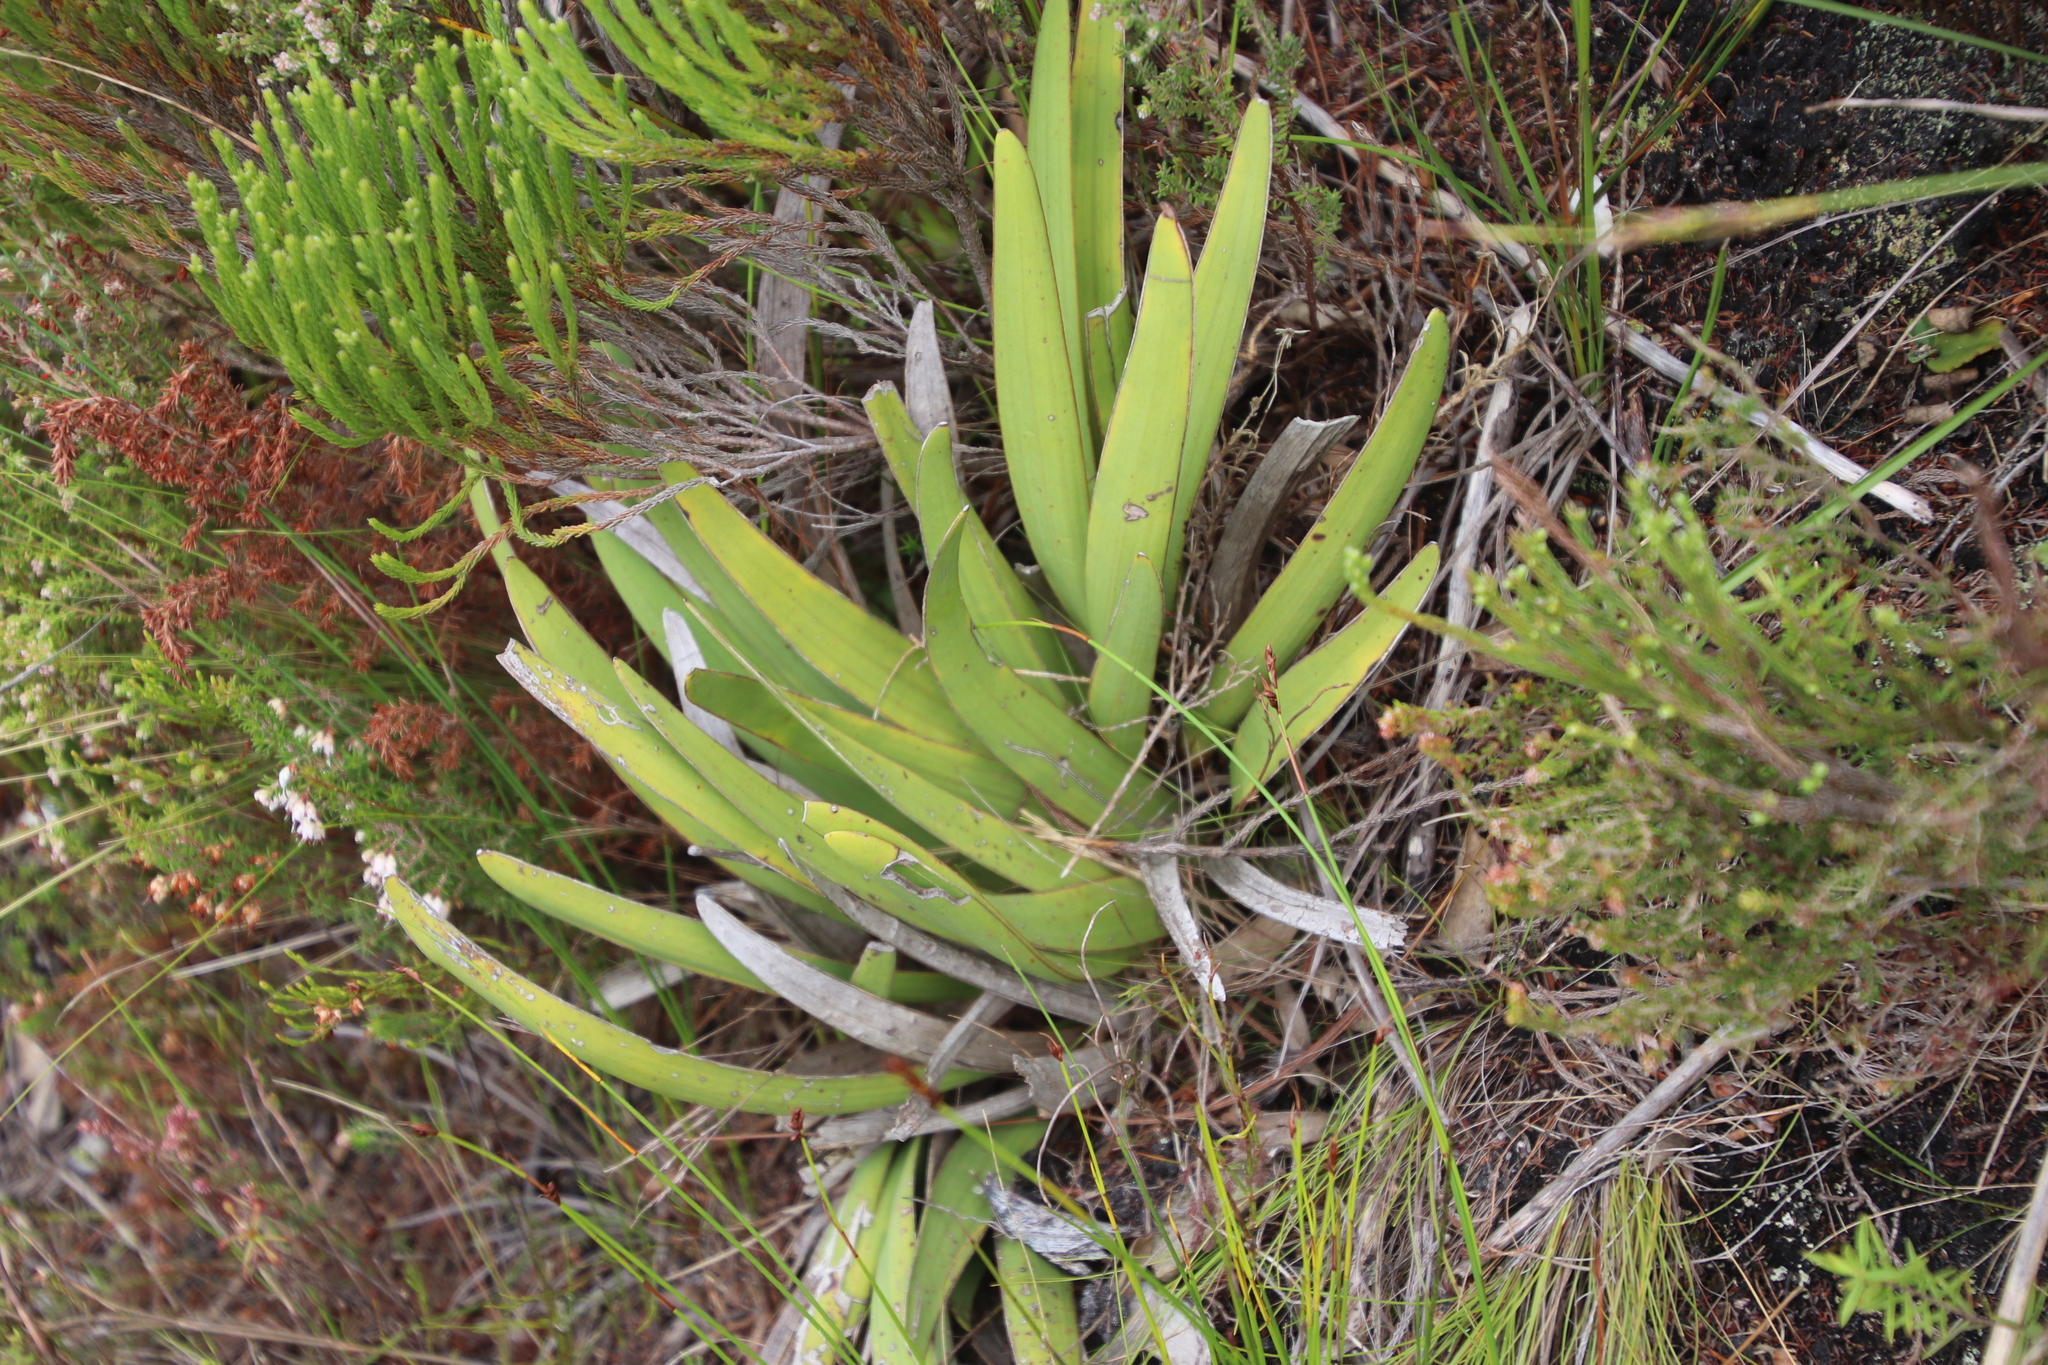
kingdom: Plantae
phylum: Tracheophyta
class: Magnoliopsida
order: Asterales
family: Asteraceae
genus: Corymbium
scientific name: Corymbium glabrum
